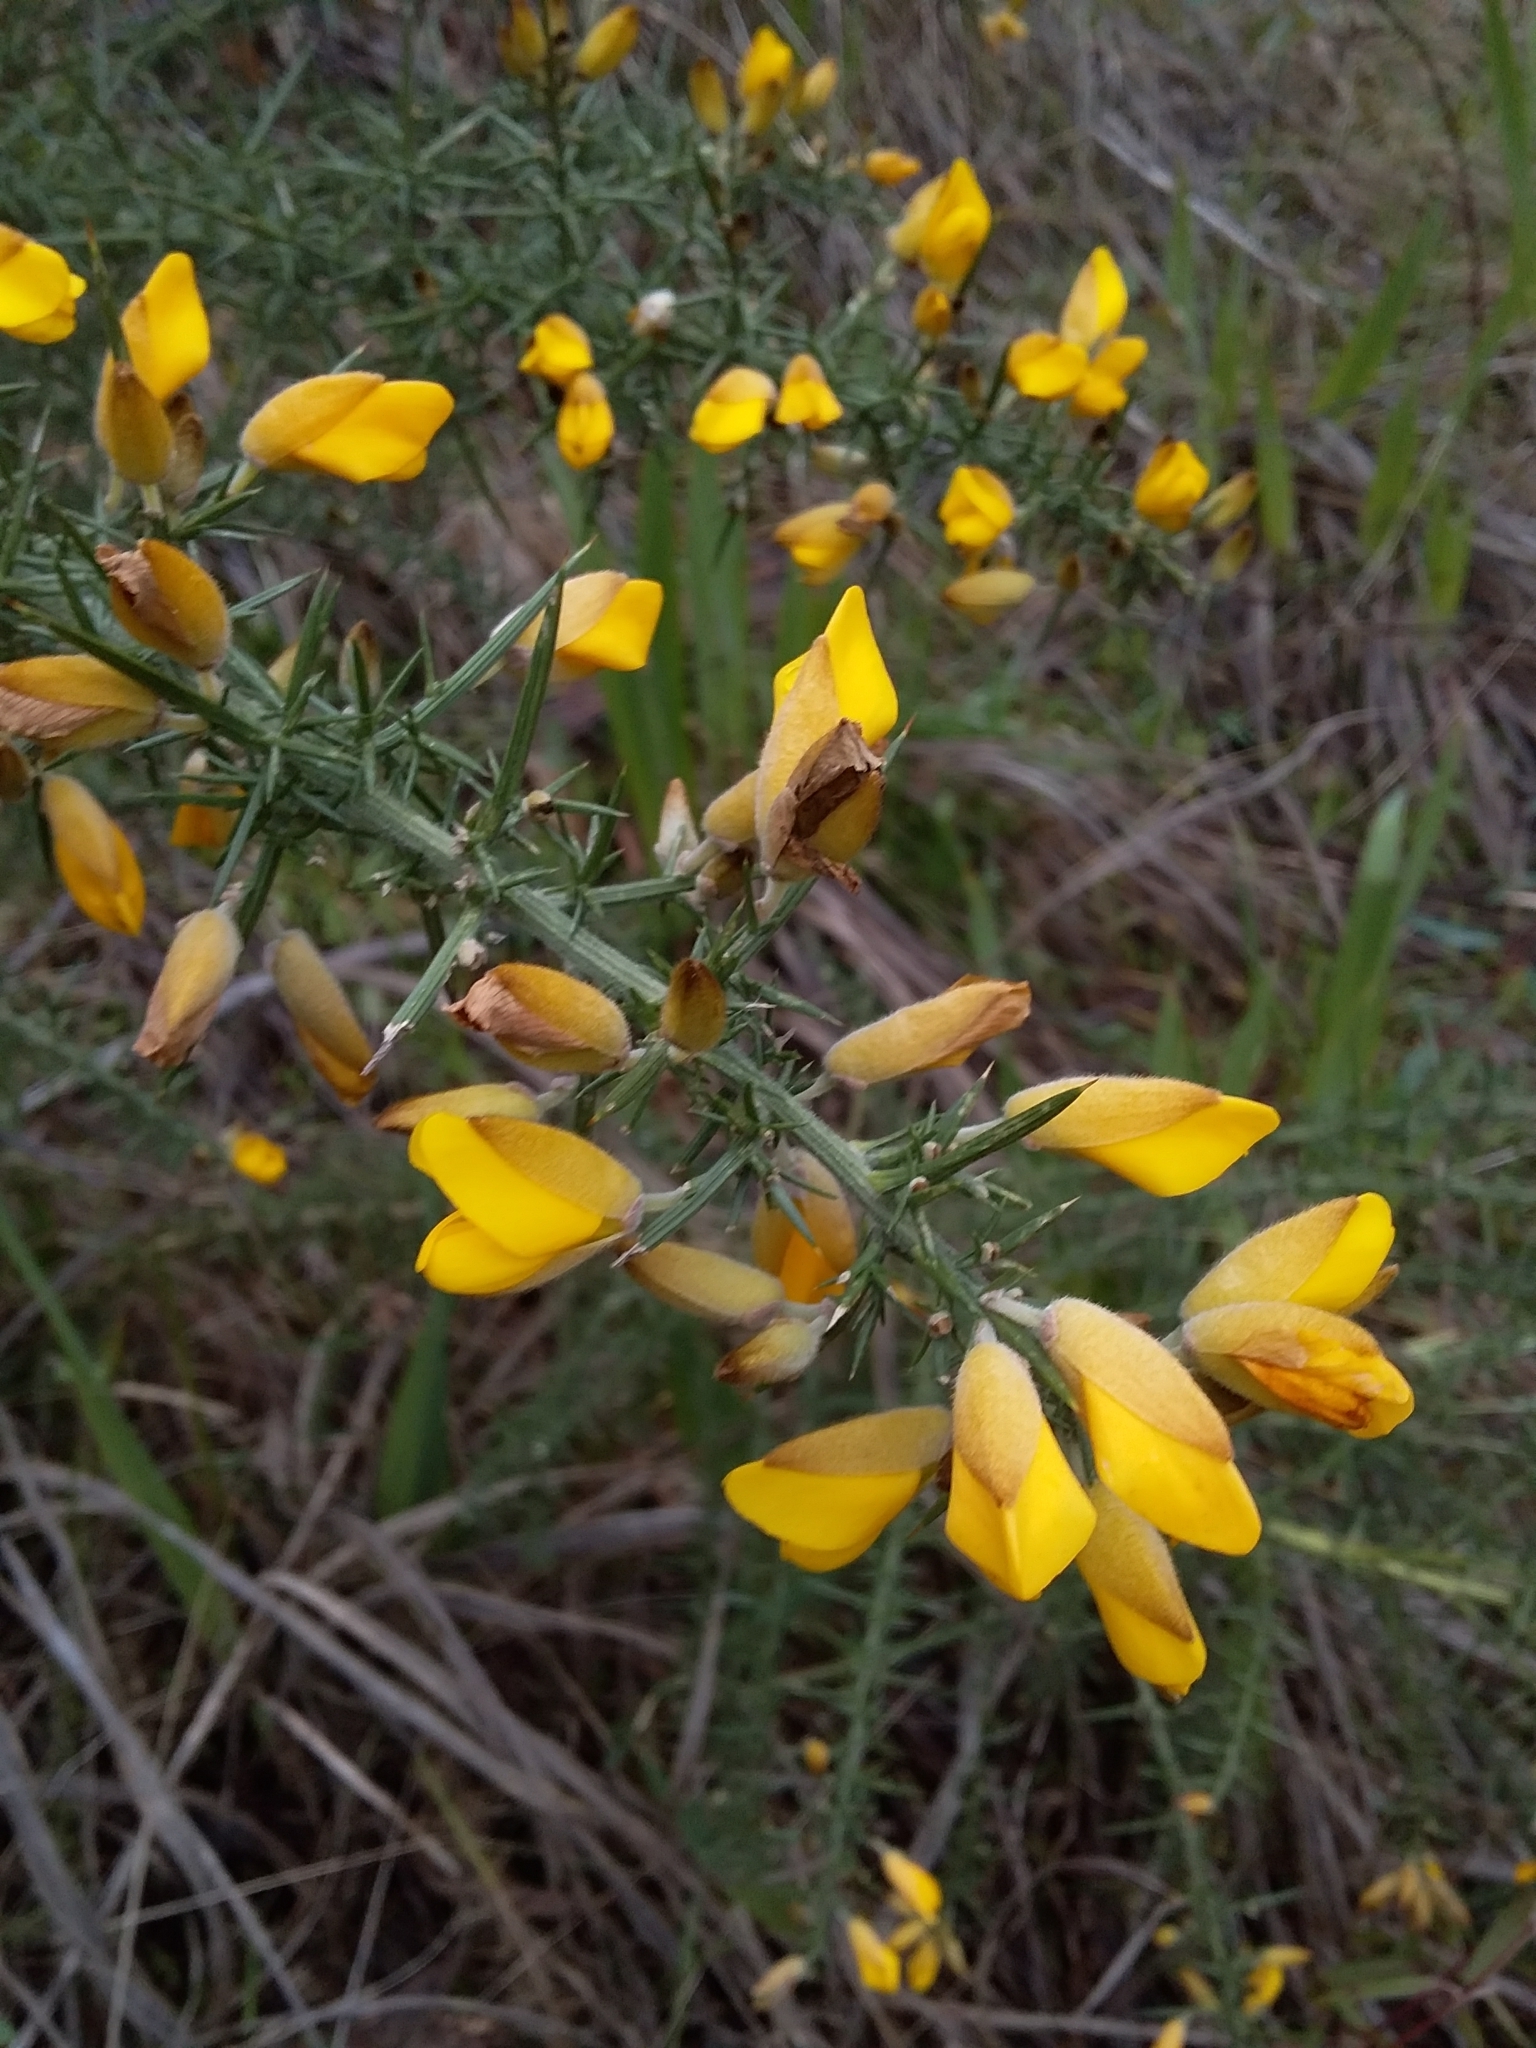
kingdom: Plantae
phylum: Tracheophyta
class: Magnoliopsida
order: Fabales
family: Fabaceae
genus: Ulex
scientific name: Ulex europaeus
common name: Common gorse
